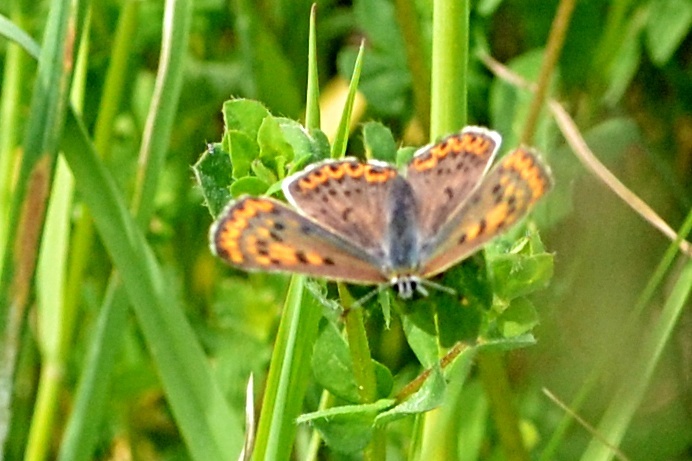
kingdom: Animalia
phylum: Arthropoda
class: Insecta
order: Lepidoptera
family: Lycaenidae
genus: Loweia
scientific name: Loweia tityrus
